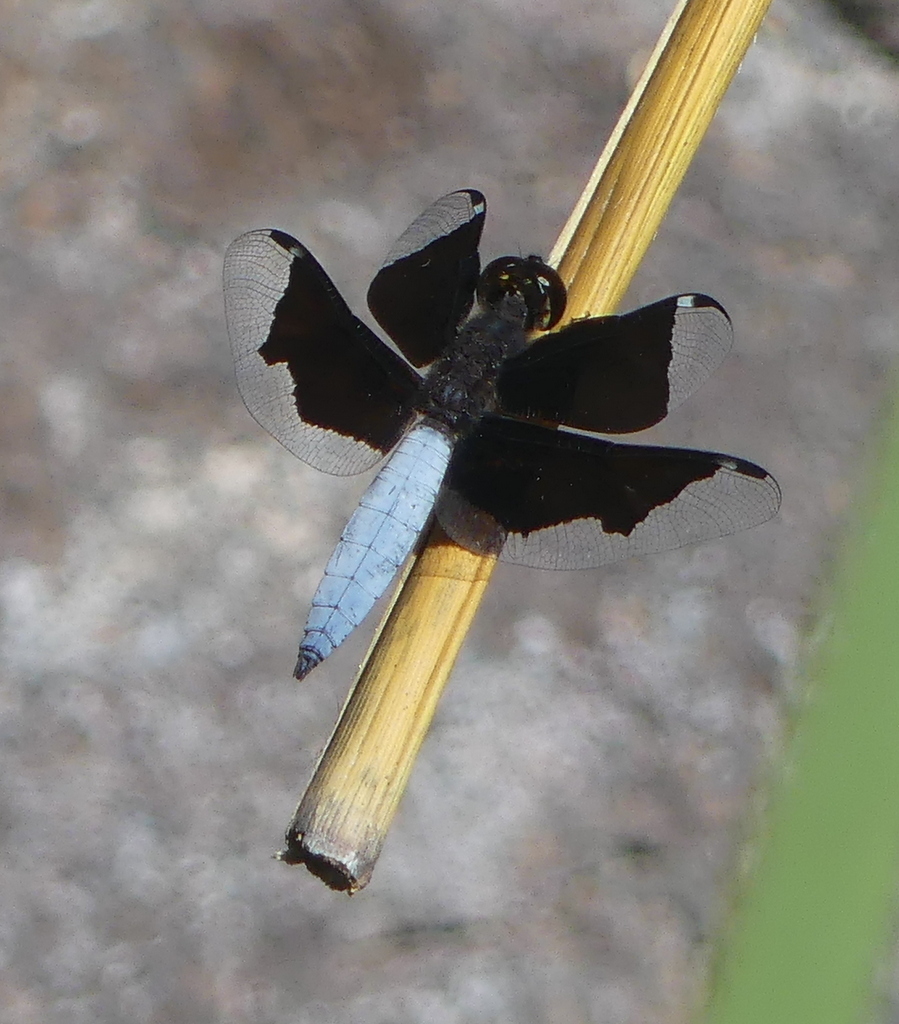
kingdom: Animalia
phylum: Arthropoda
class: Insecta
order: Odonata
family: Libellulidae
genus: Palpopleura
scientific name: Palpopleura lucia
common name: Lucia widow
